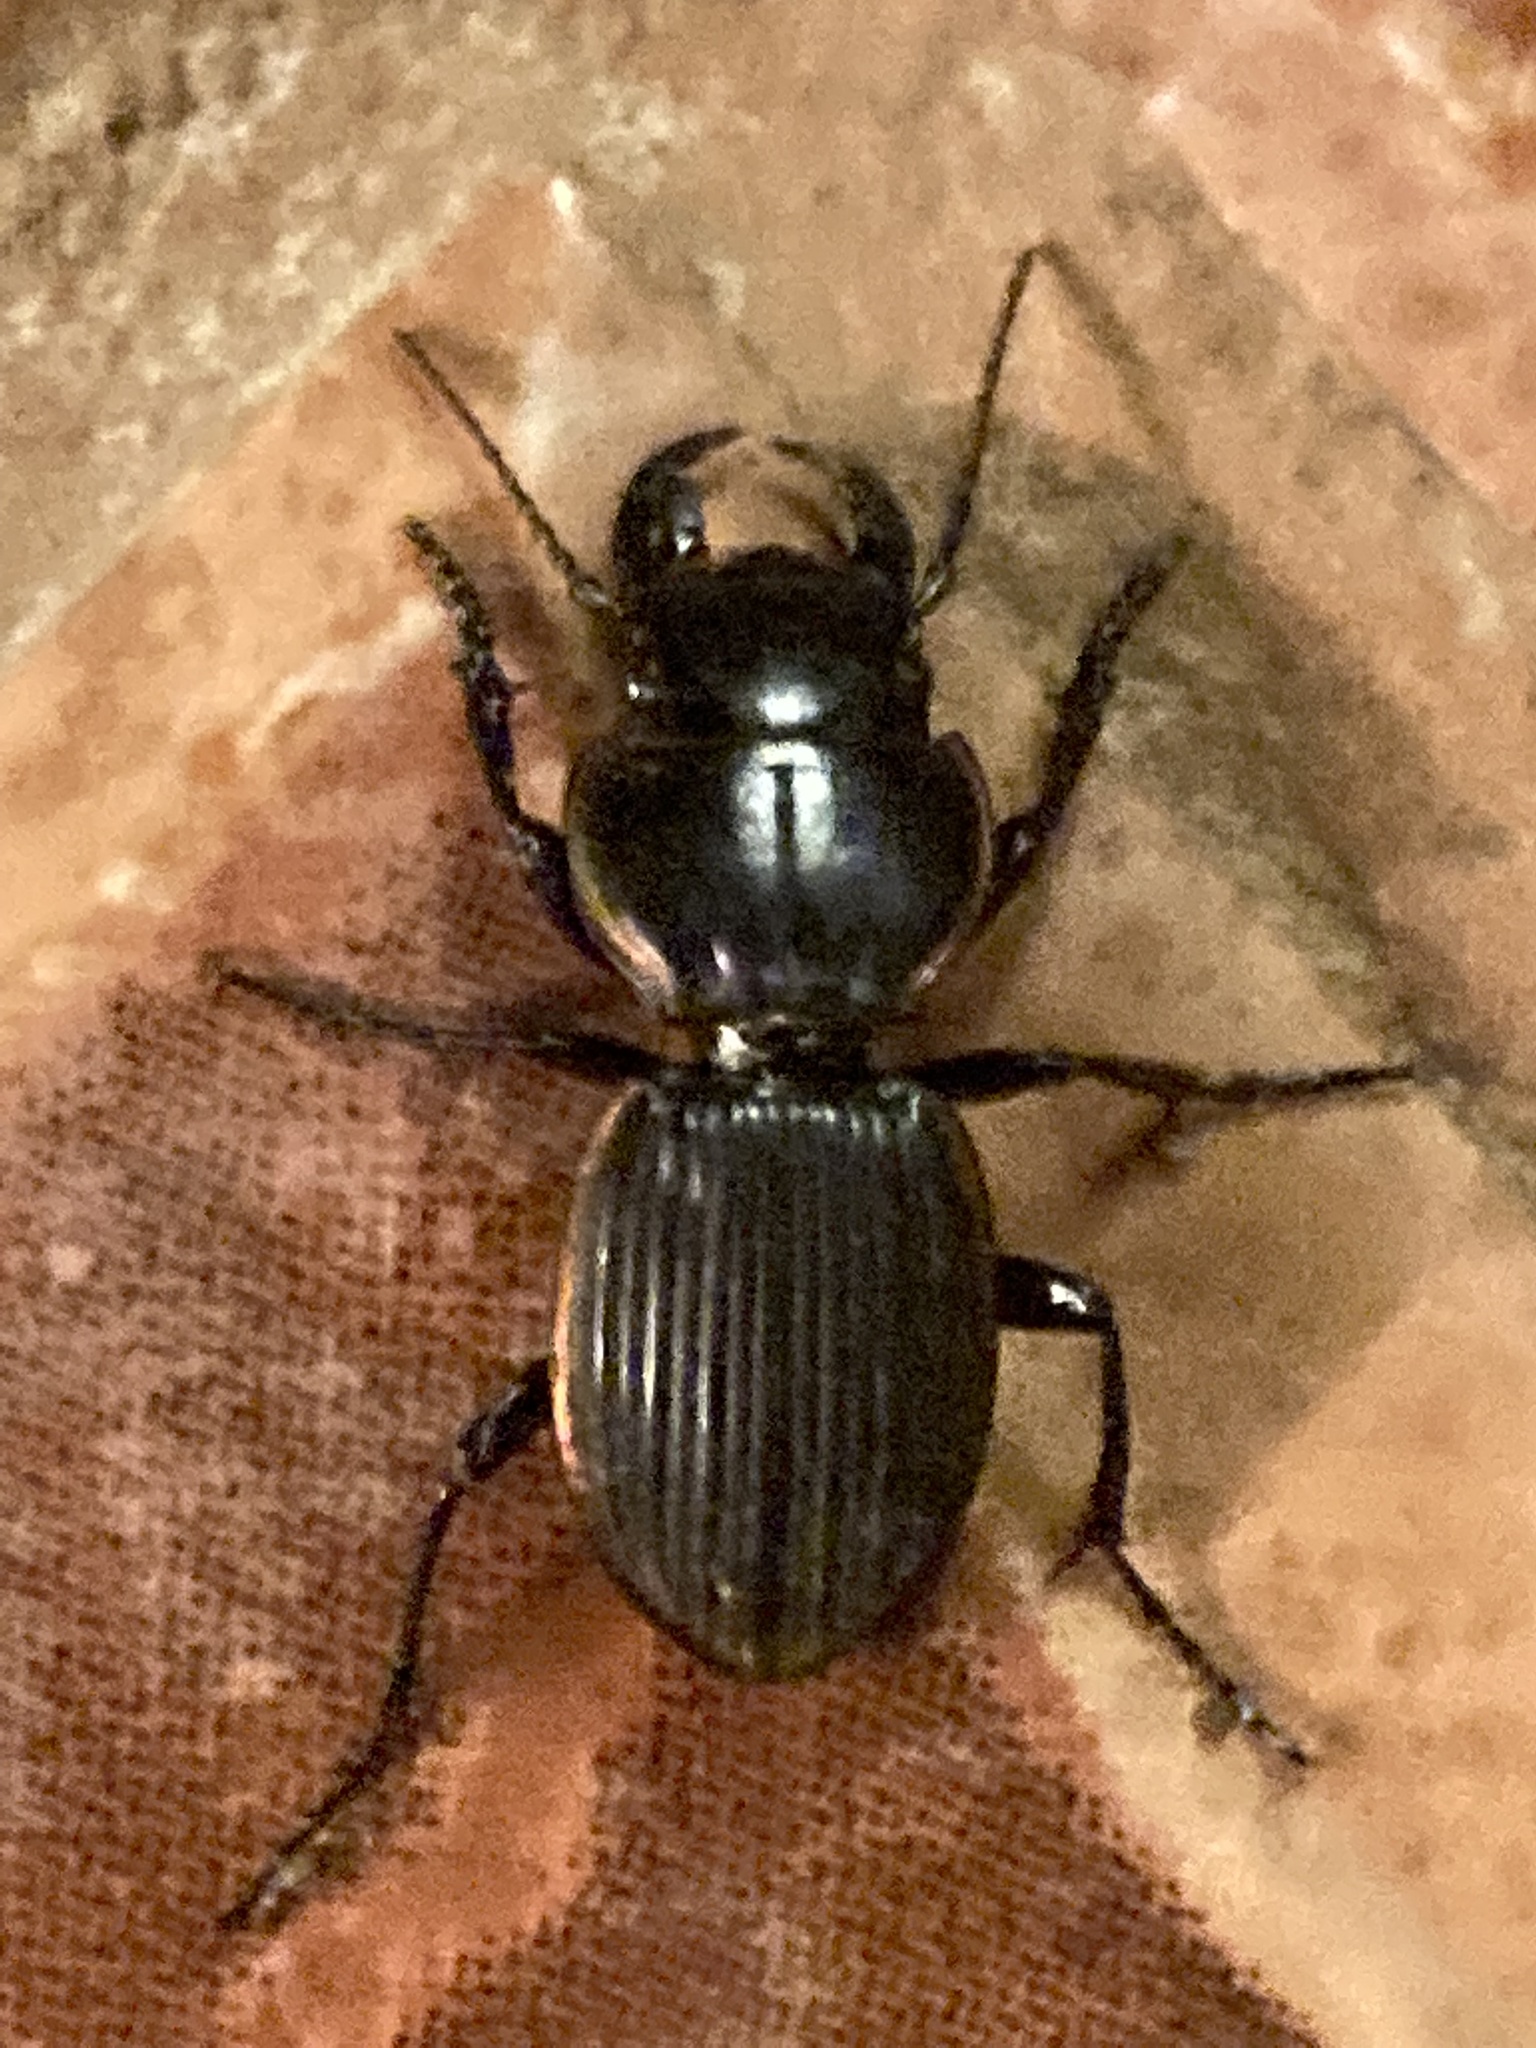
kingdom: Animalia
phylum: Arthropoda
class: Insecta
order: Coleoptera
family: Carabidae
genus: Pasimachus
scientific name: Pasimachus intermedius
